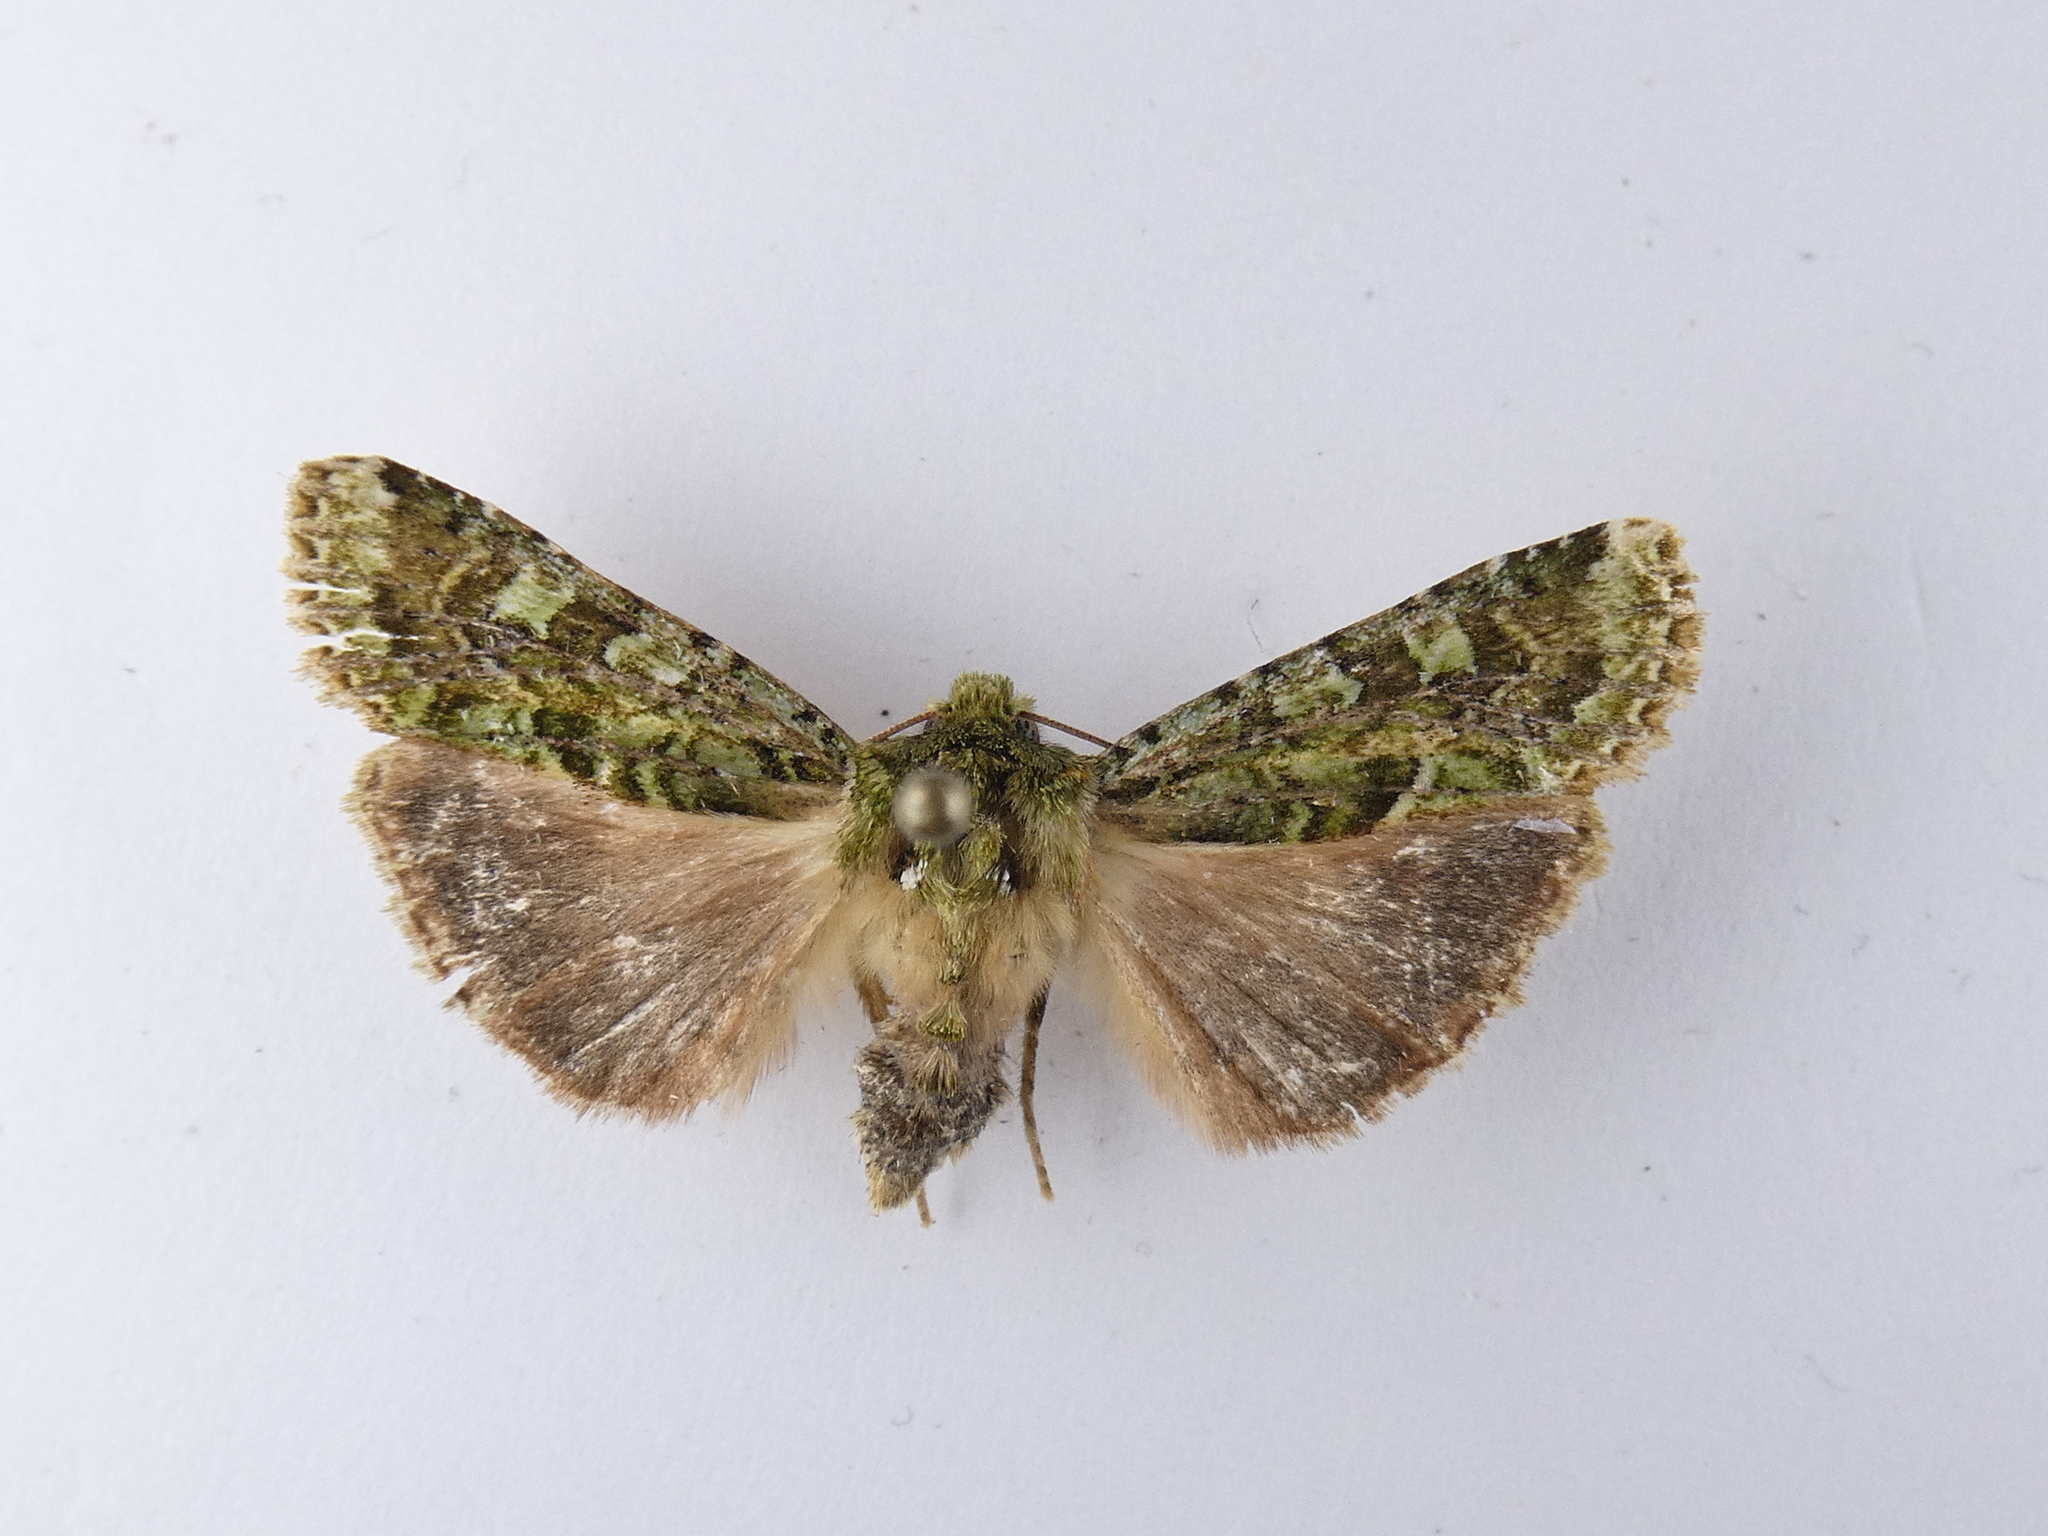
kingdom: Animalia
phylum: Arthropoda
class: Insecta
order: Lepidoptera
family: Noctuidae
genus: Feredayia
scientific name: Feredayia grammosa
